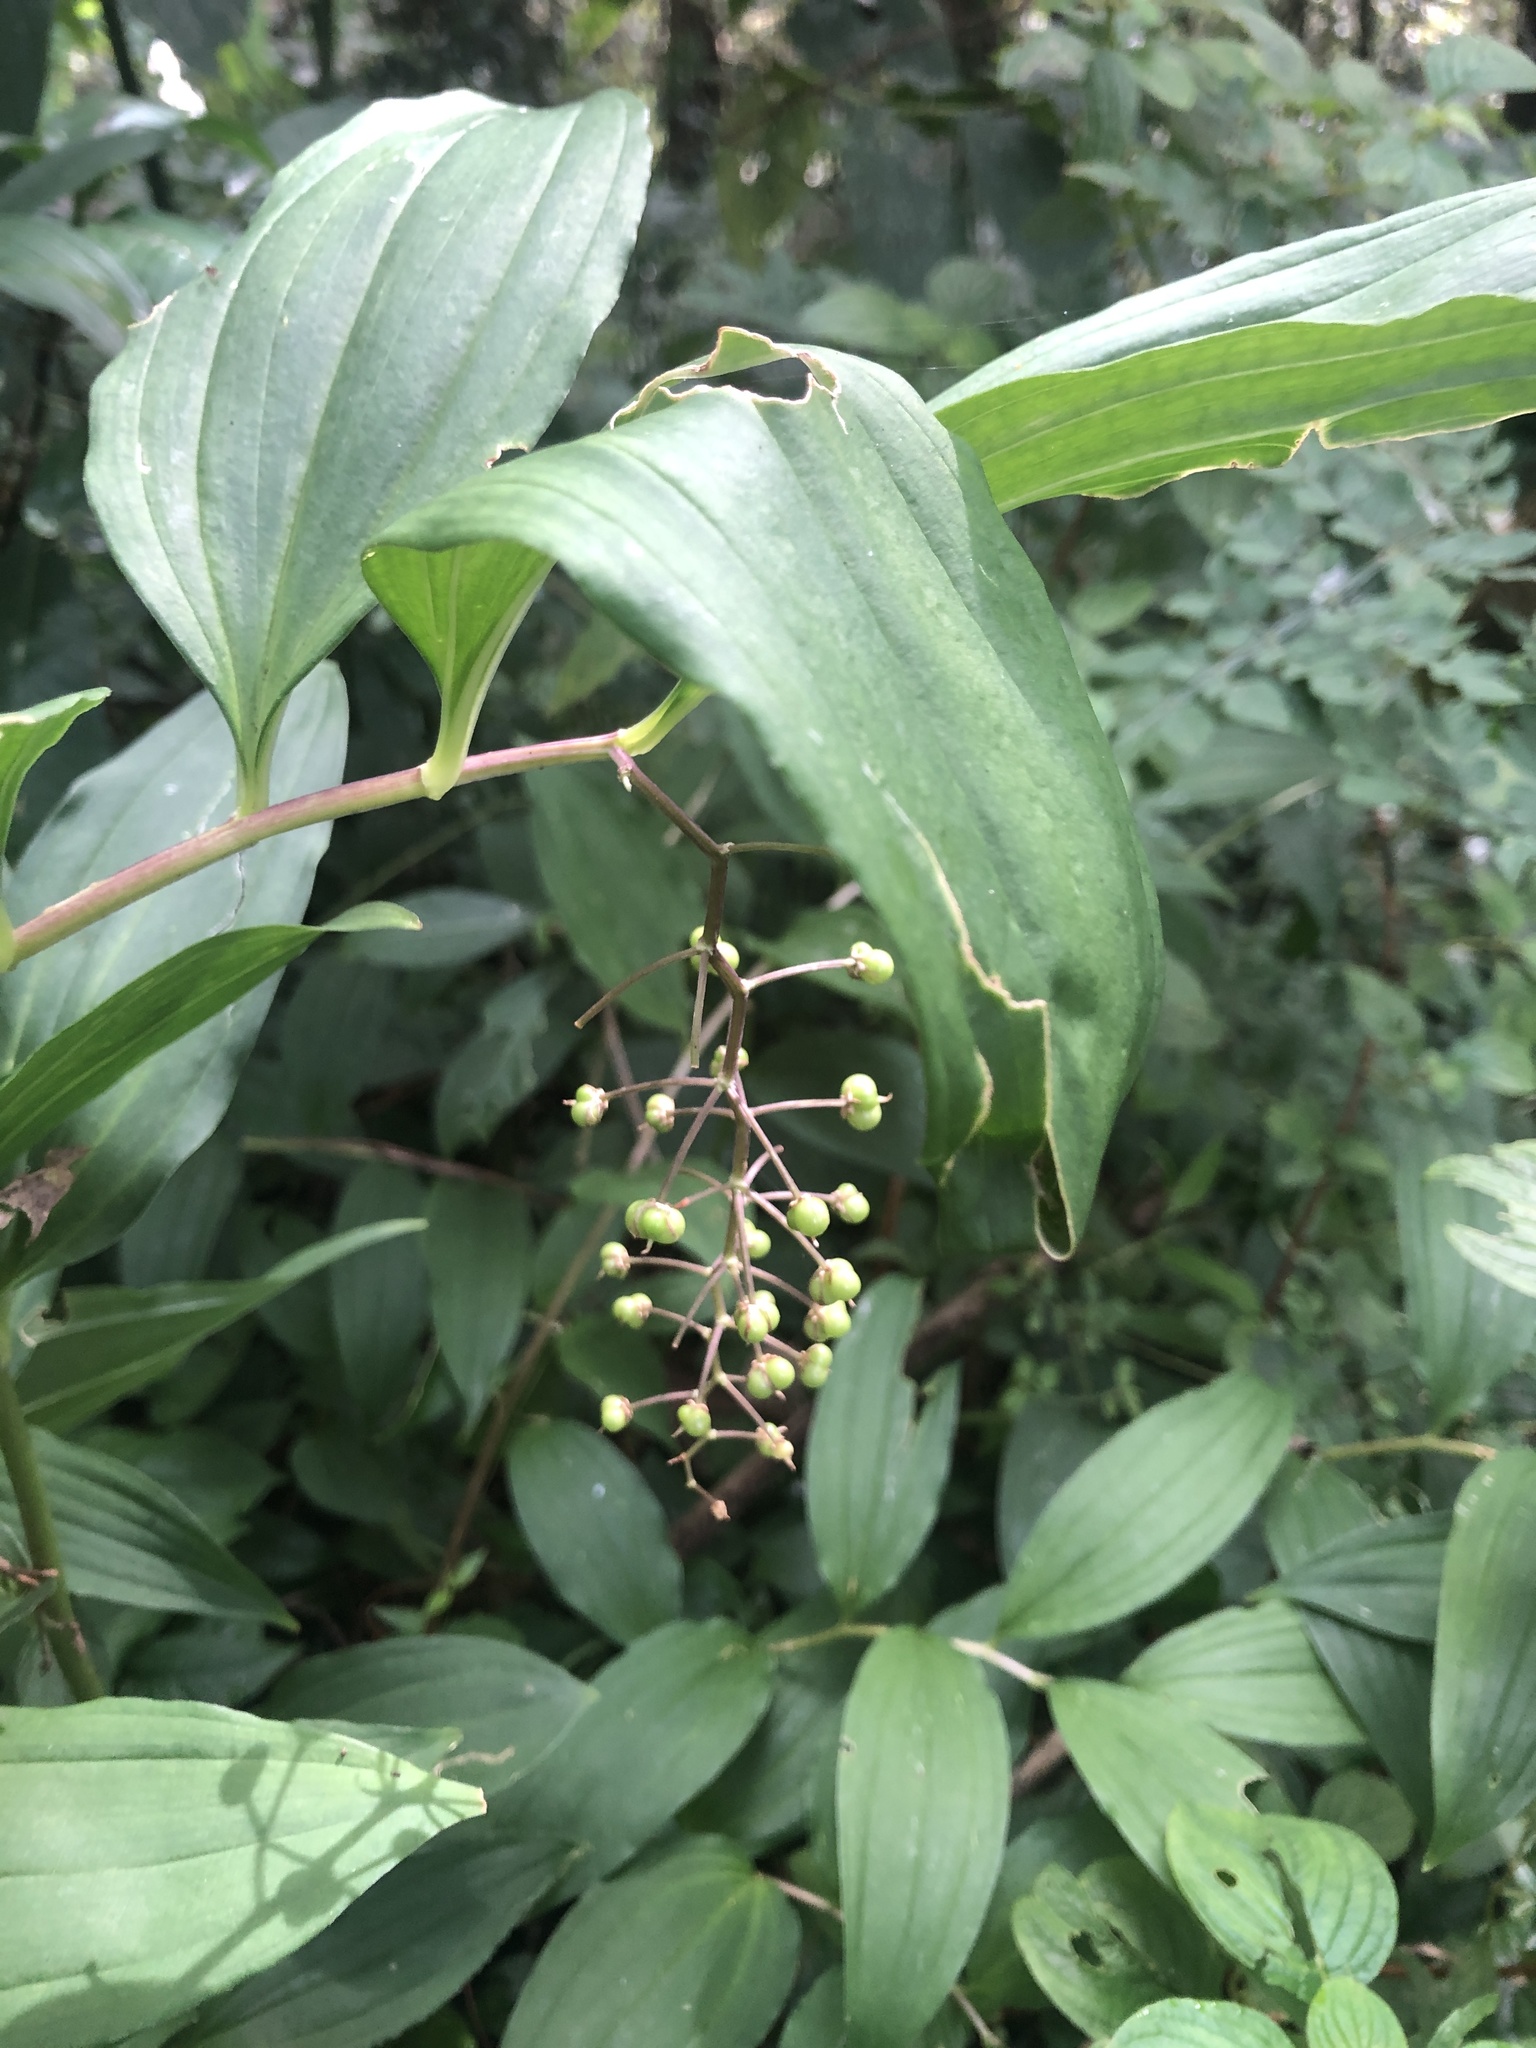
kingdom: Plantae
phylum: Tracheophyta
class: Liliopsida
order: Asparagales
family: Asparagaceae
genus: Maianthemum
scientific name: Maianthemum flexuosum
